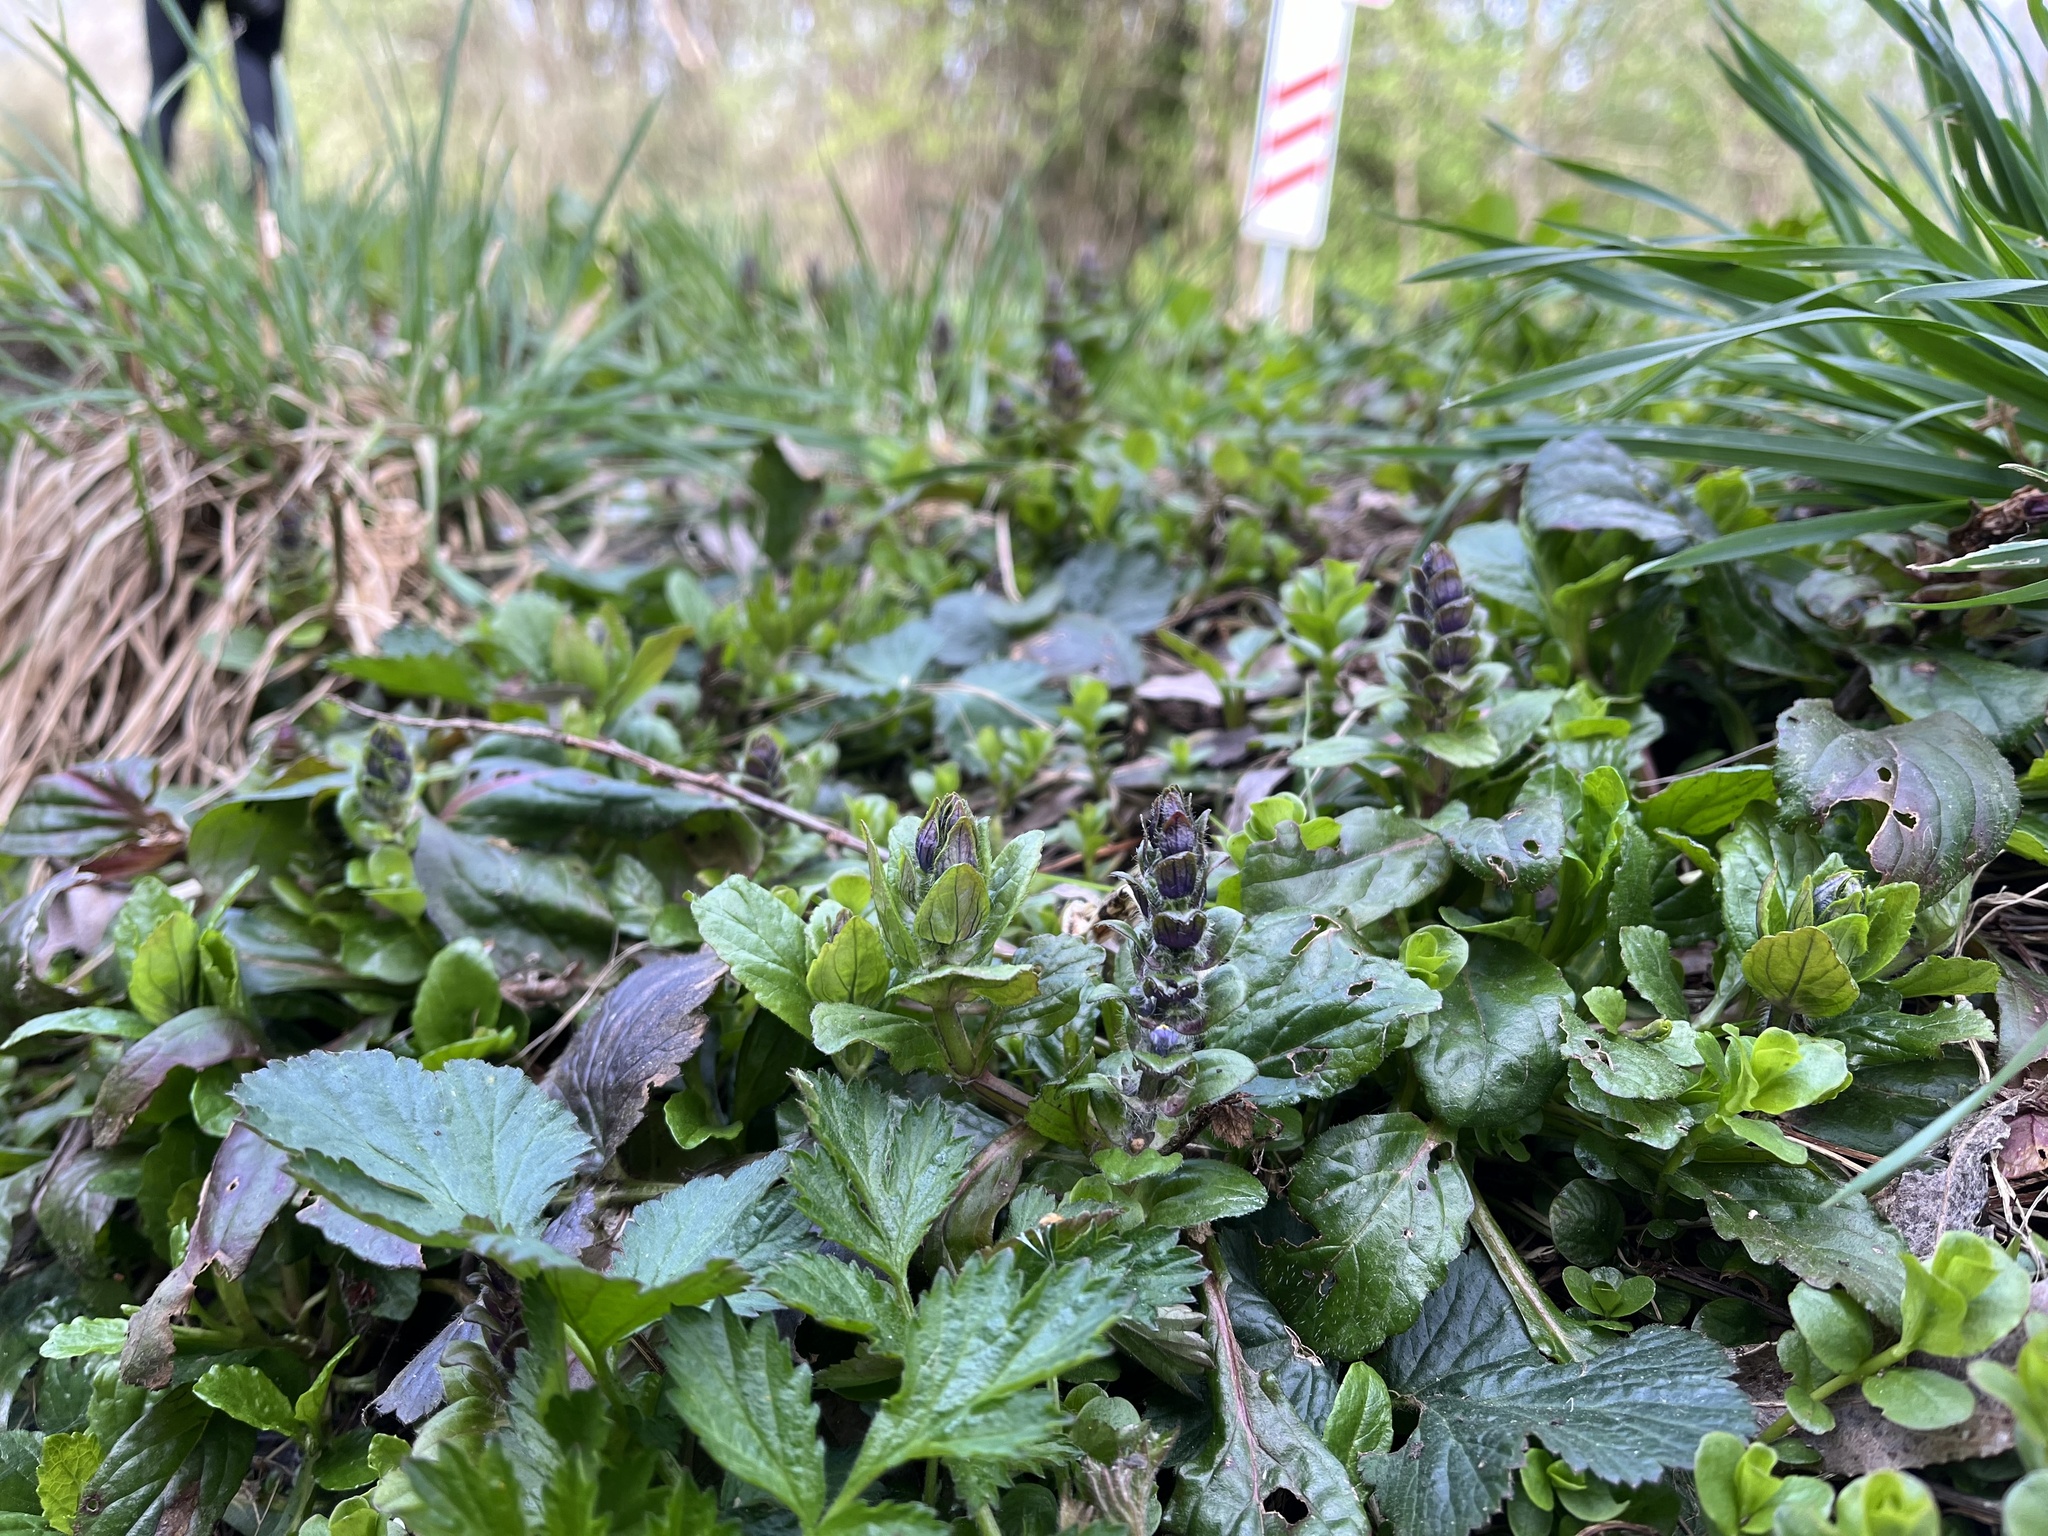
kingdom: Plantae
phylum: Tracheophyta
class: Magnoliopsida
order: Lamiales
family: Lamiaceae
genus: Ajuga
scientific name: Ajuga reptans
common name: Bugle
